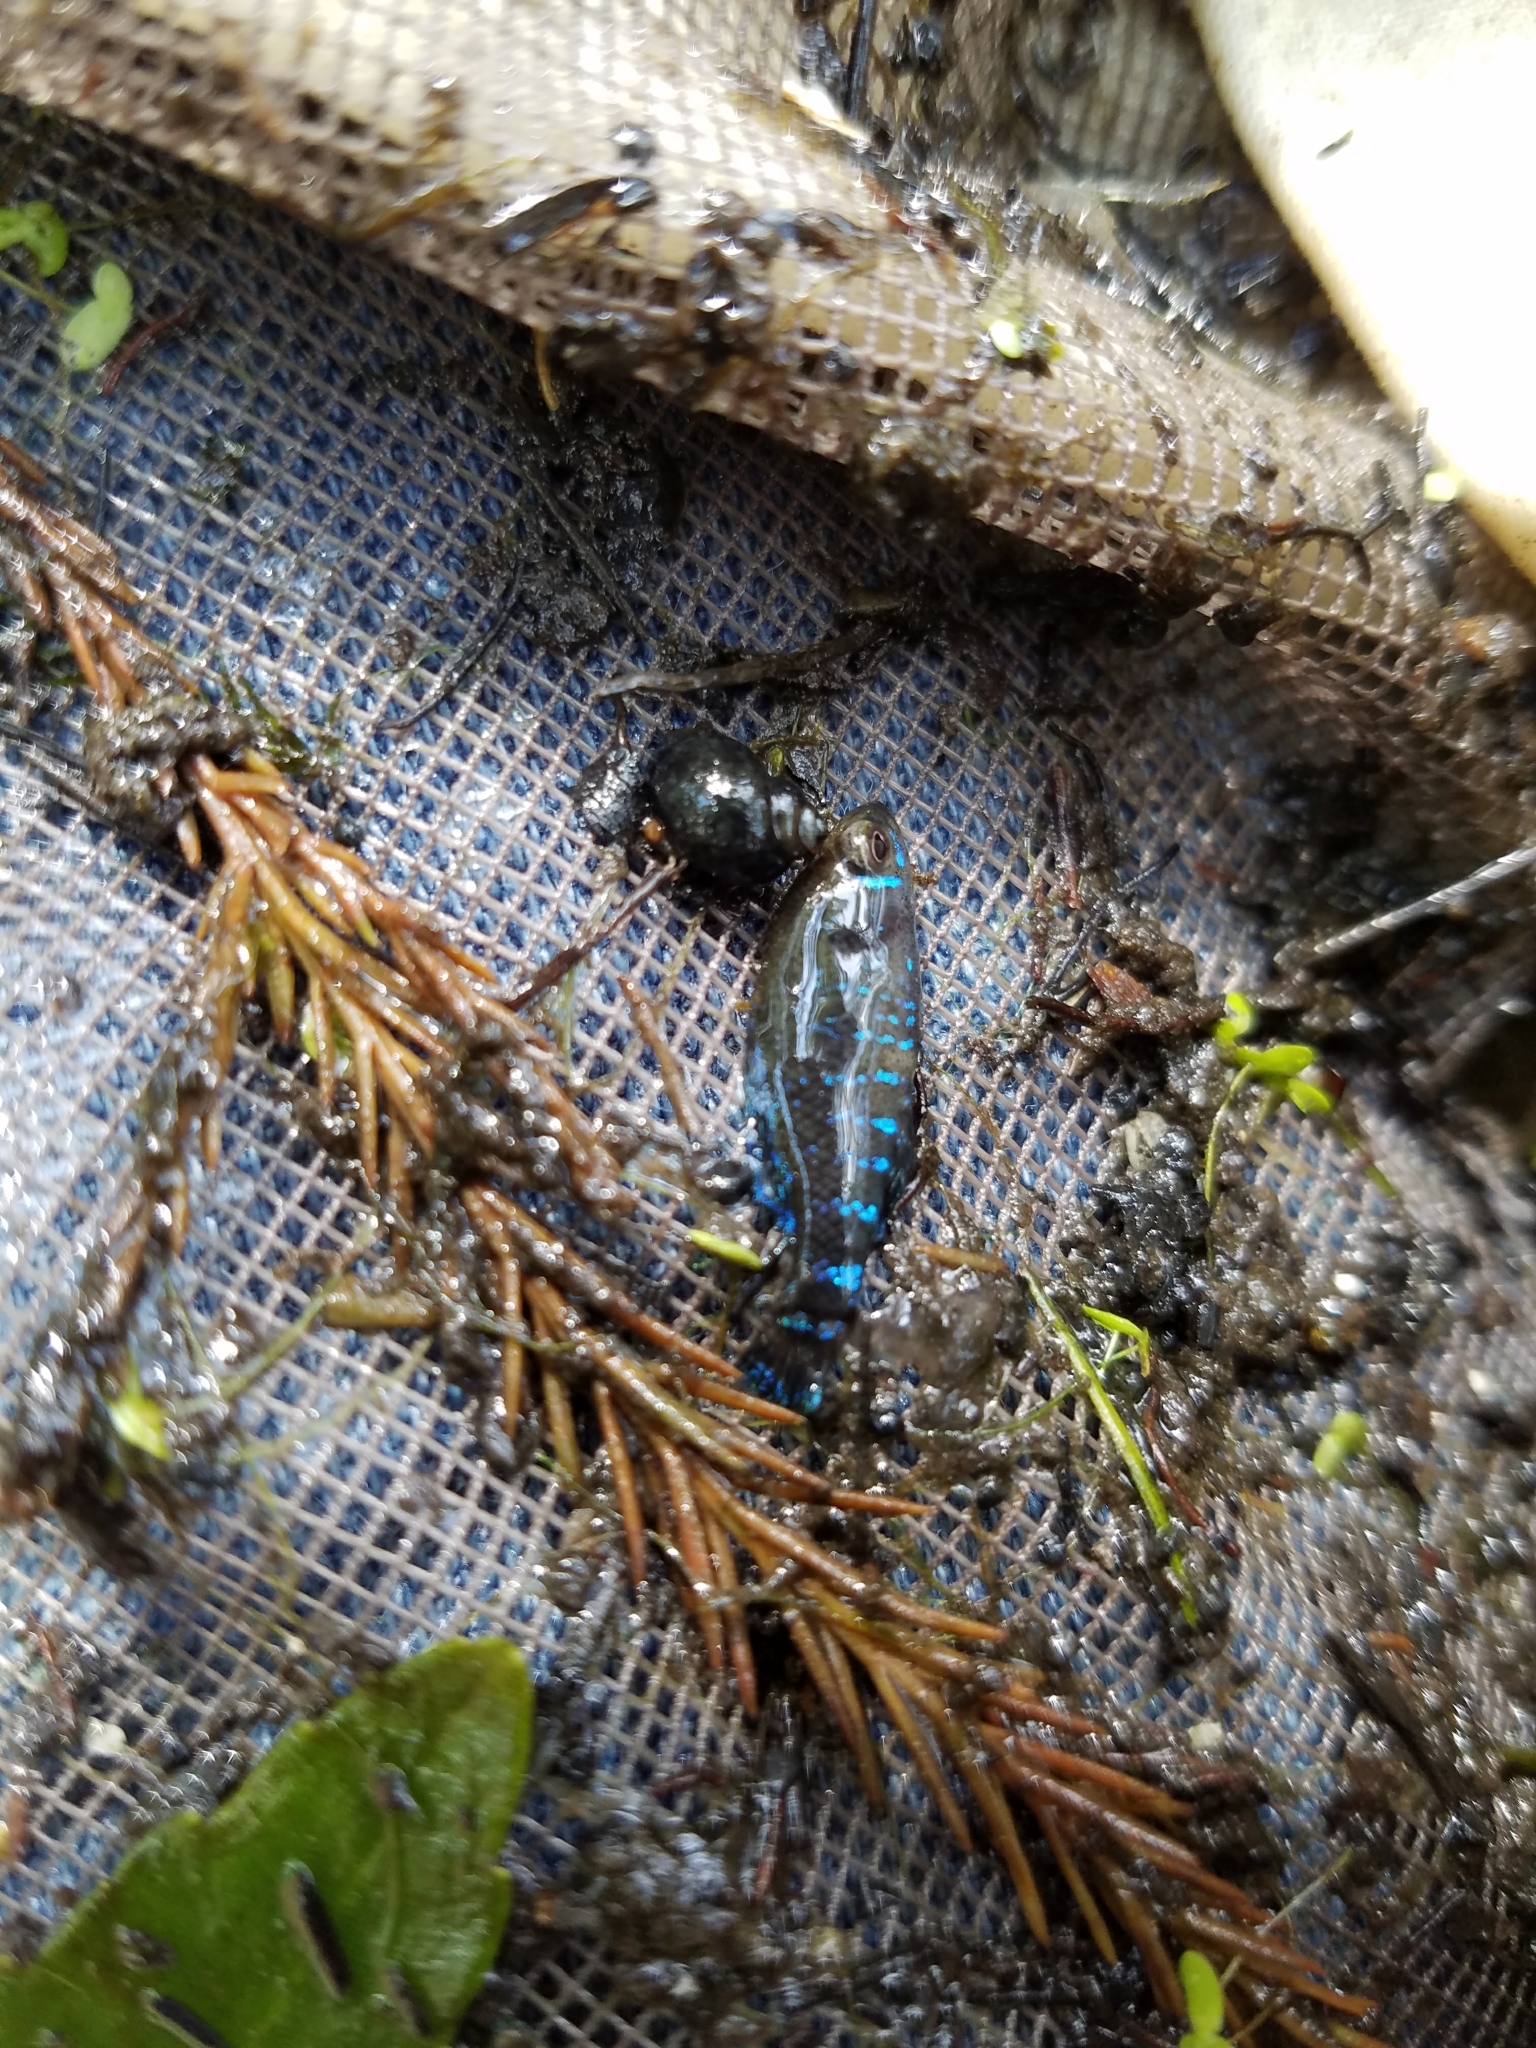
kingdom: Animalia
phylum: Chordata
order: Perciformes
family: Elassomatidae
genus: Elassoma
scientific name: Elassoma gilberti
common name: Pygmy sunfish
